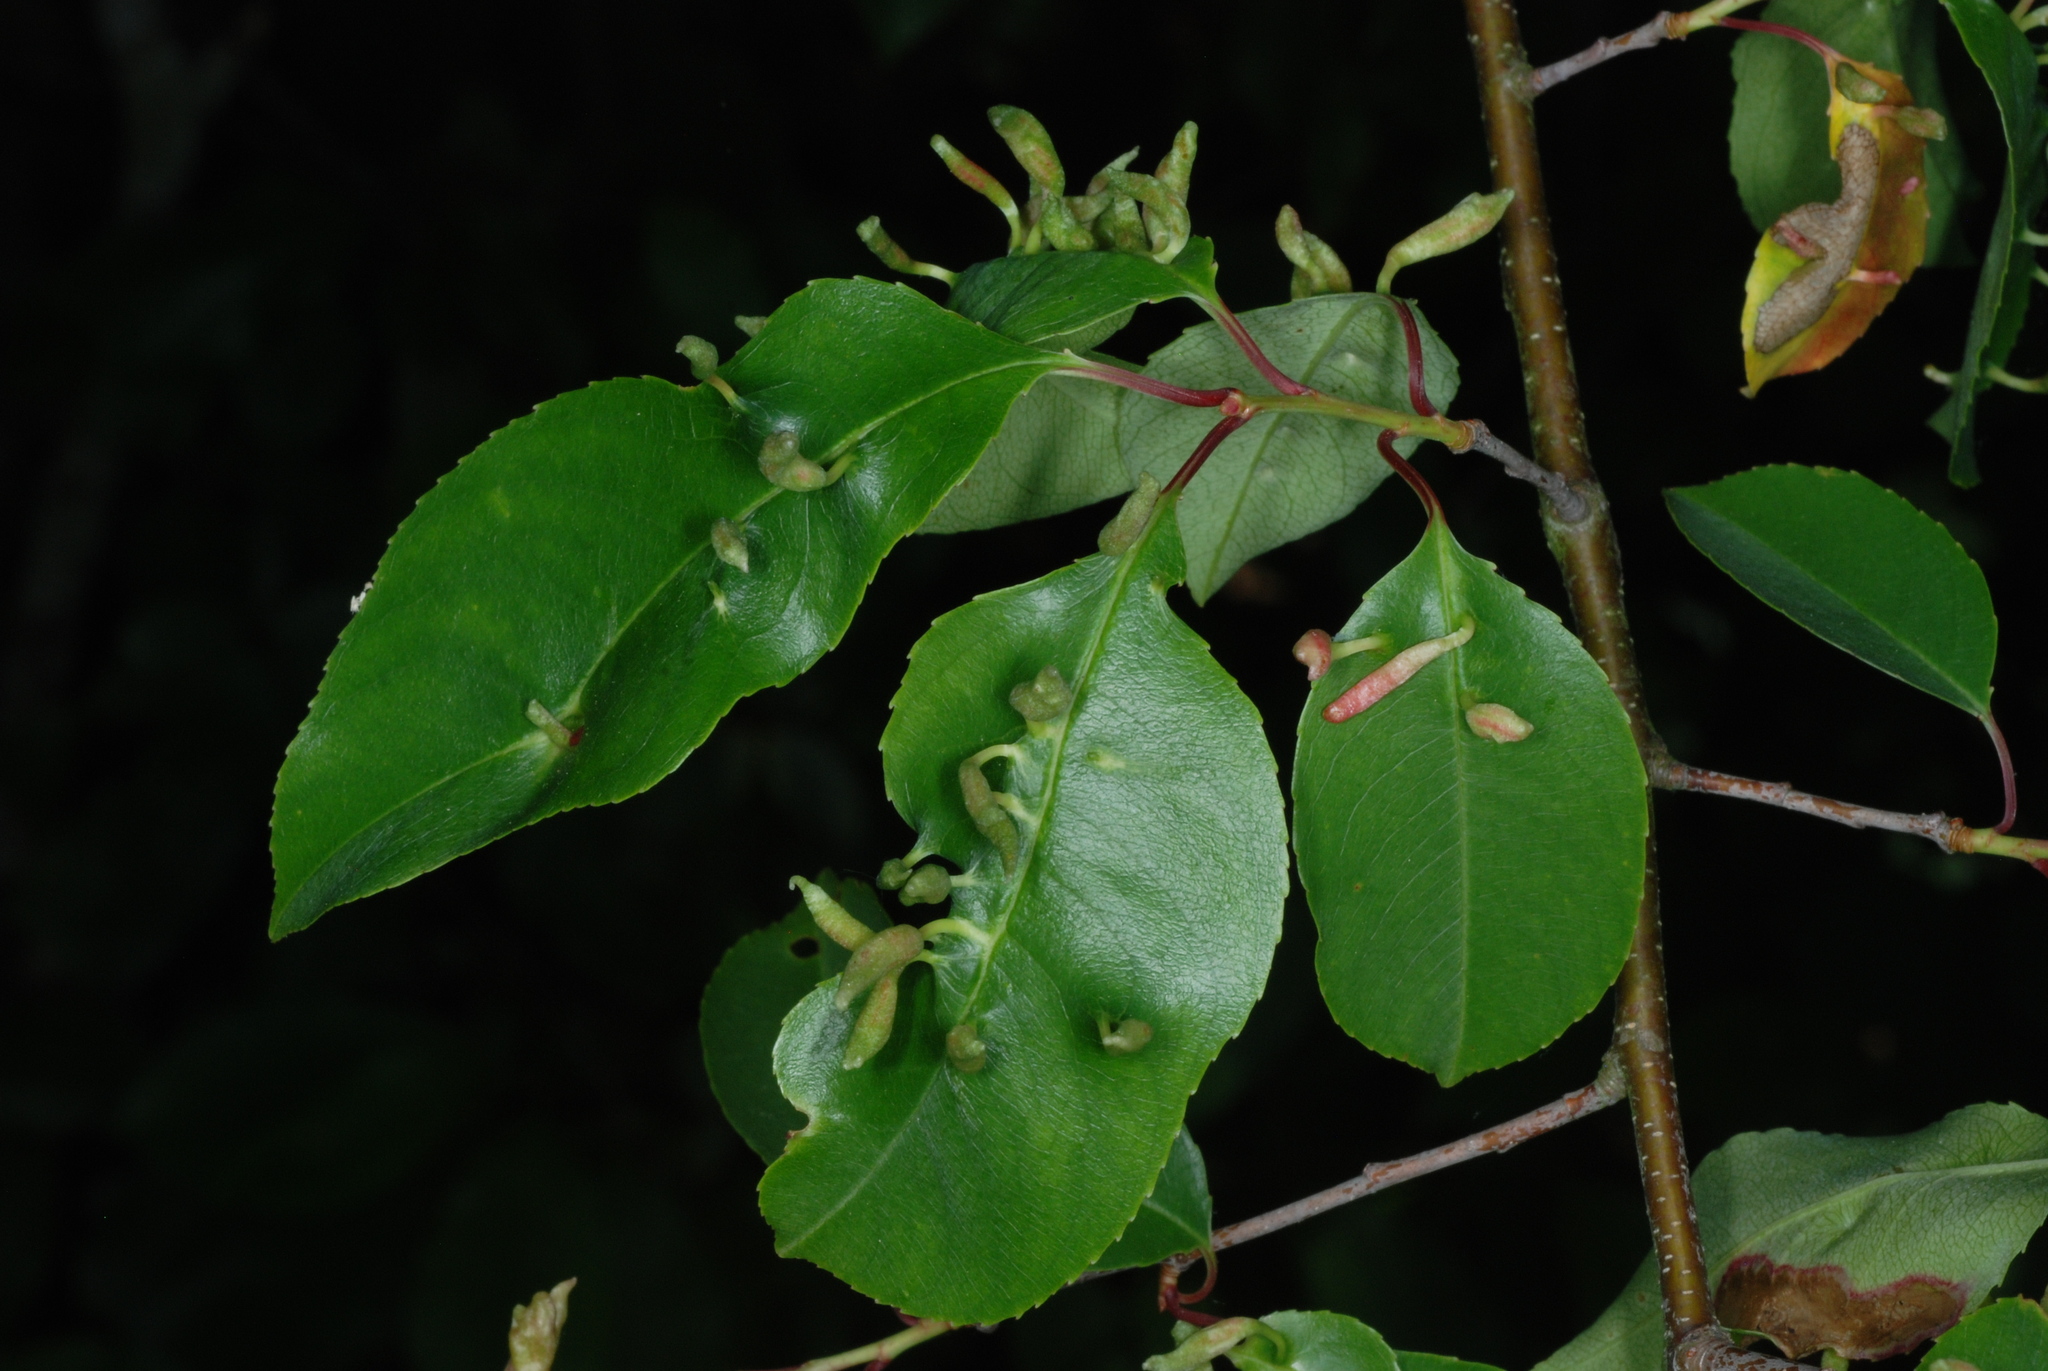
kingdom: Animalia
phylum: Arthropoda
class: Arachnida
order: Trombidiformes
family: Eriophyidae
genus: Eriophyes
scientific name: Eriophyes
